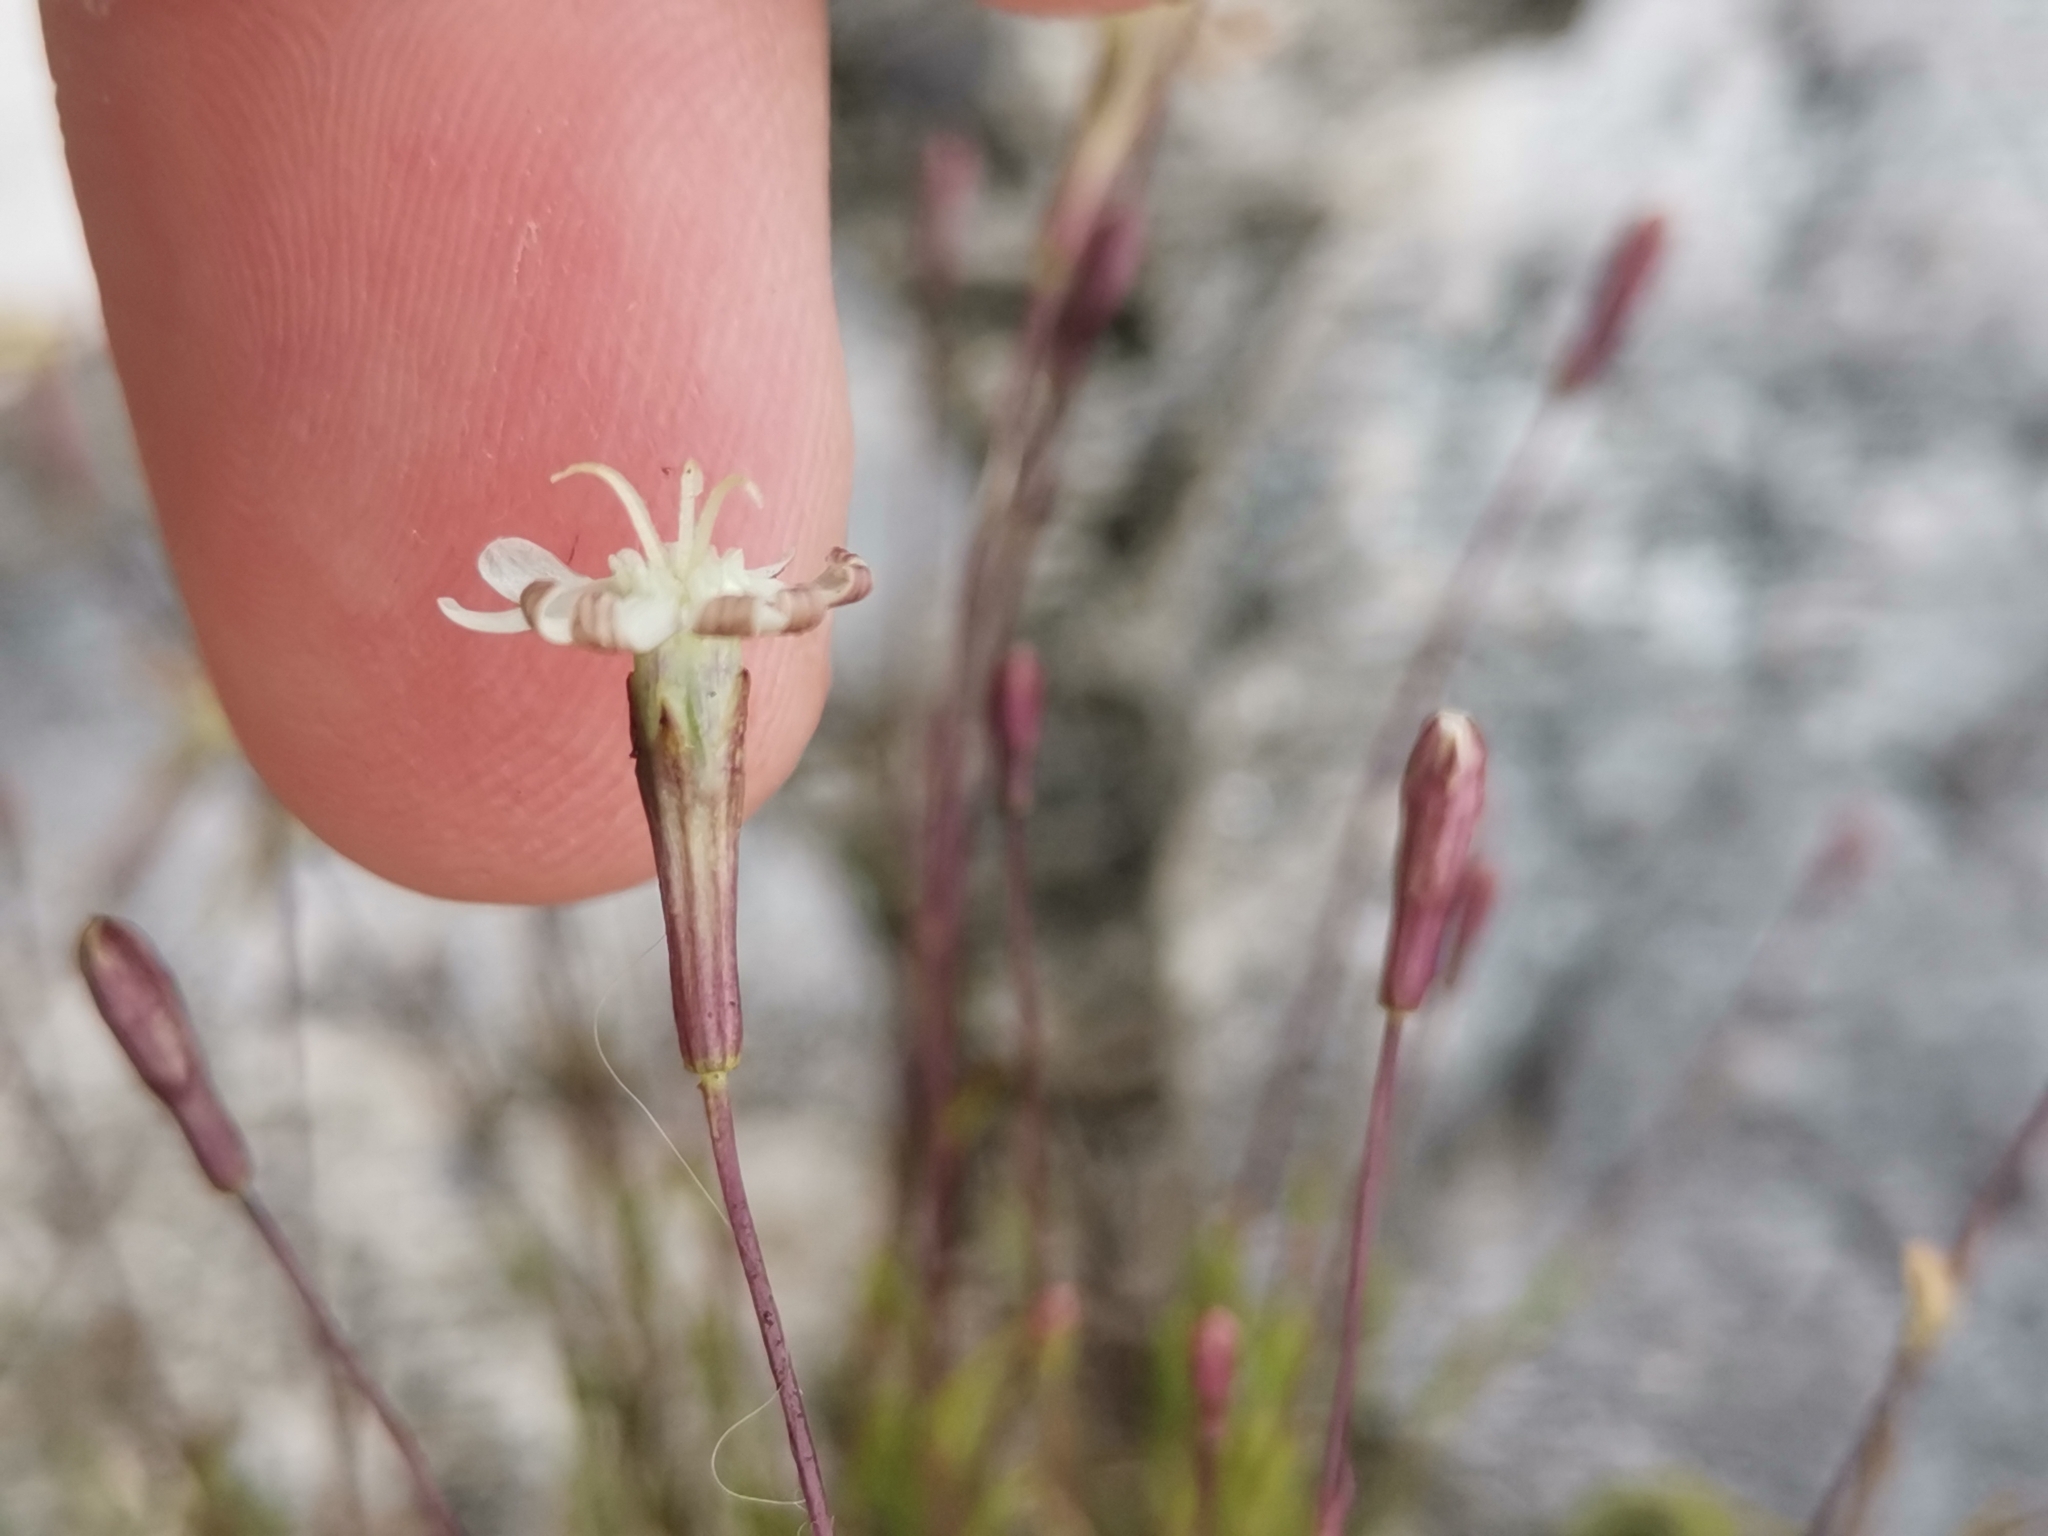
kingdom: Plantae
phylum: Tracheophyta
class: Magnoliopsida
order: Caryophyllales
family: Caryophyllaceae
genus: Silene
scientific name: Silene saxifraga
